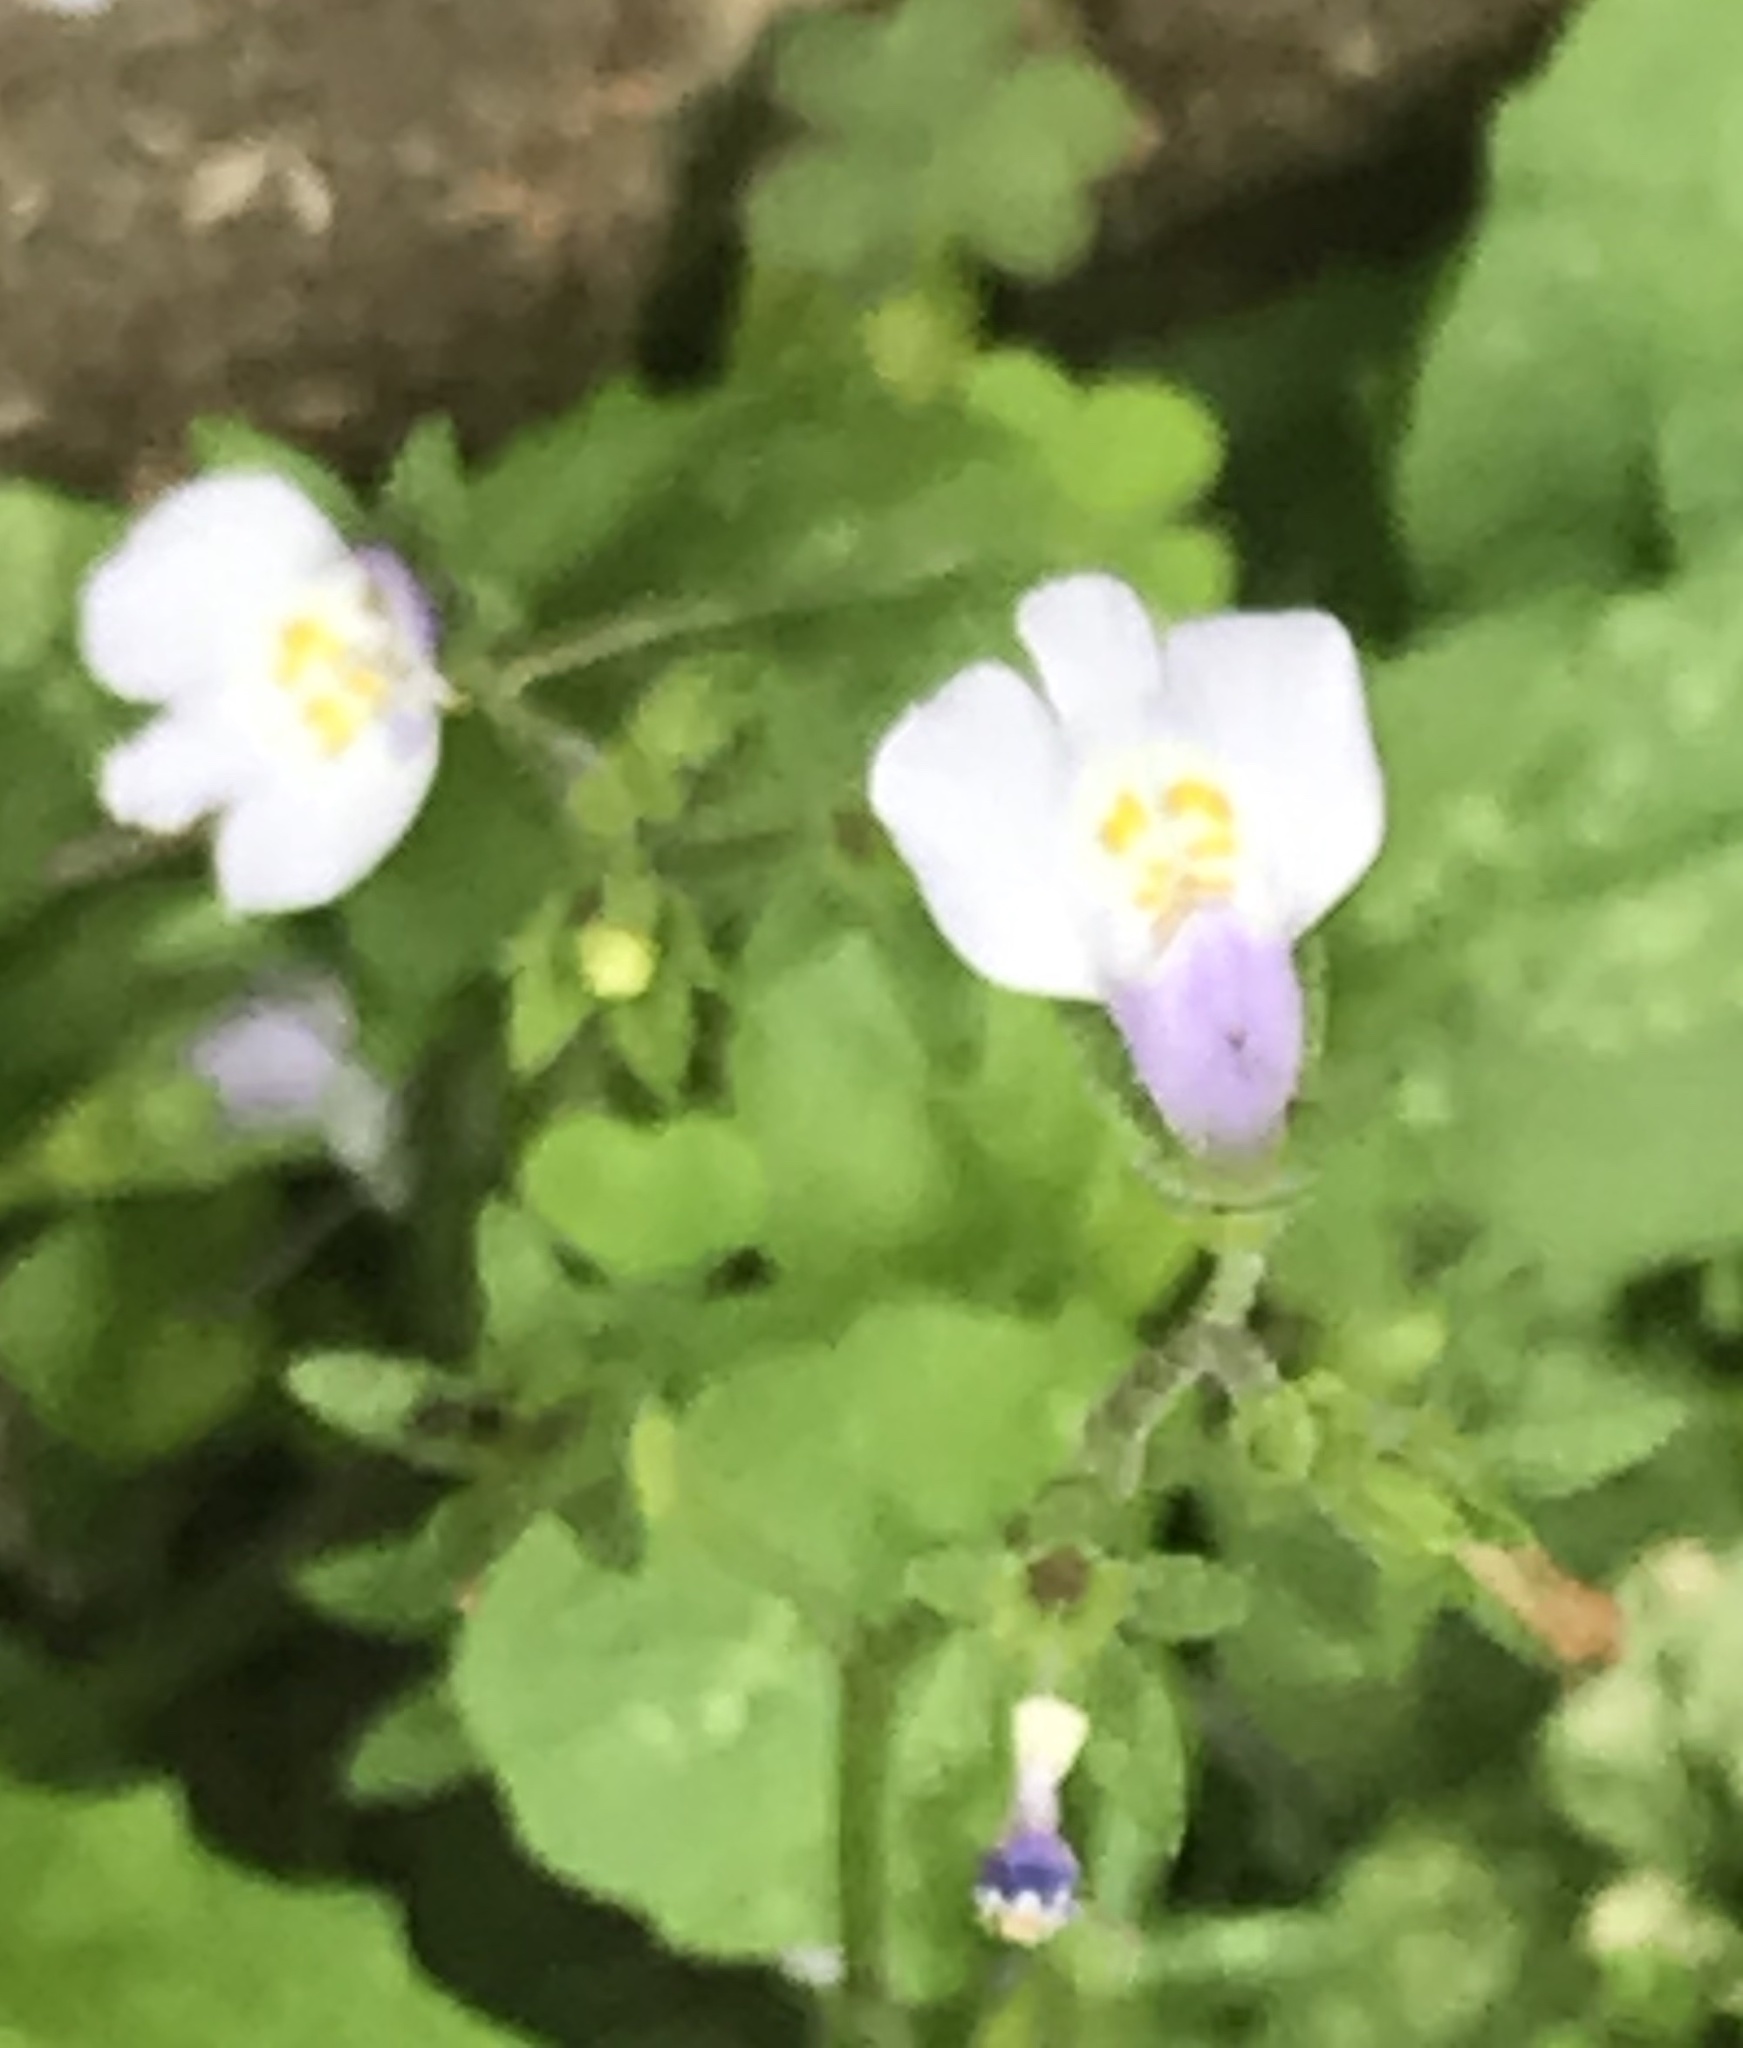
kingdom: Plantae
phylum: Tracheophyta
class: Magnoliopsida
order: Lamiales
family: Mazaceae
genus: Mazus
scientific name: Mazus pumilus
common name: Japanese mazus
